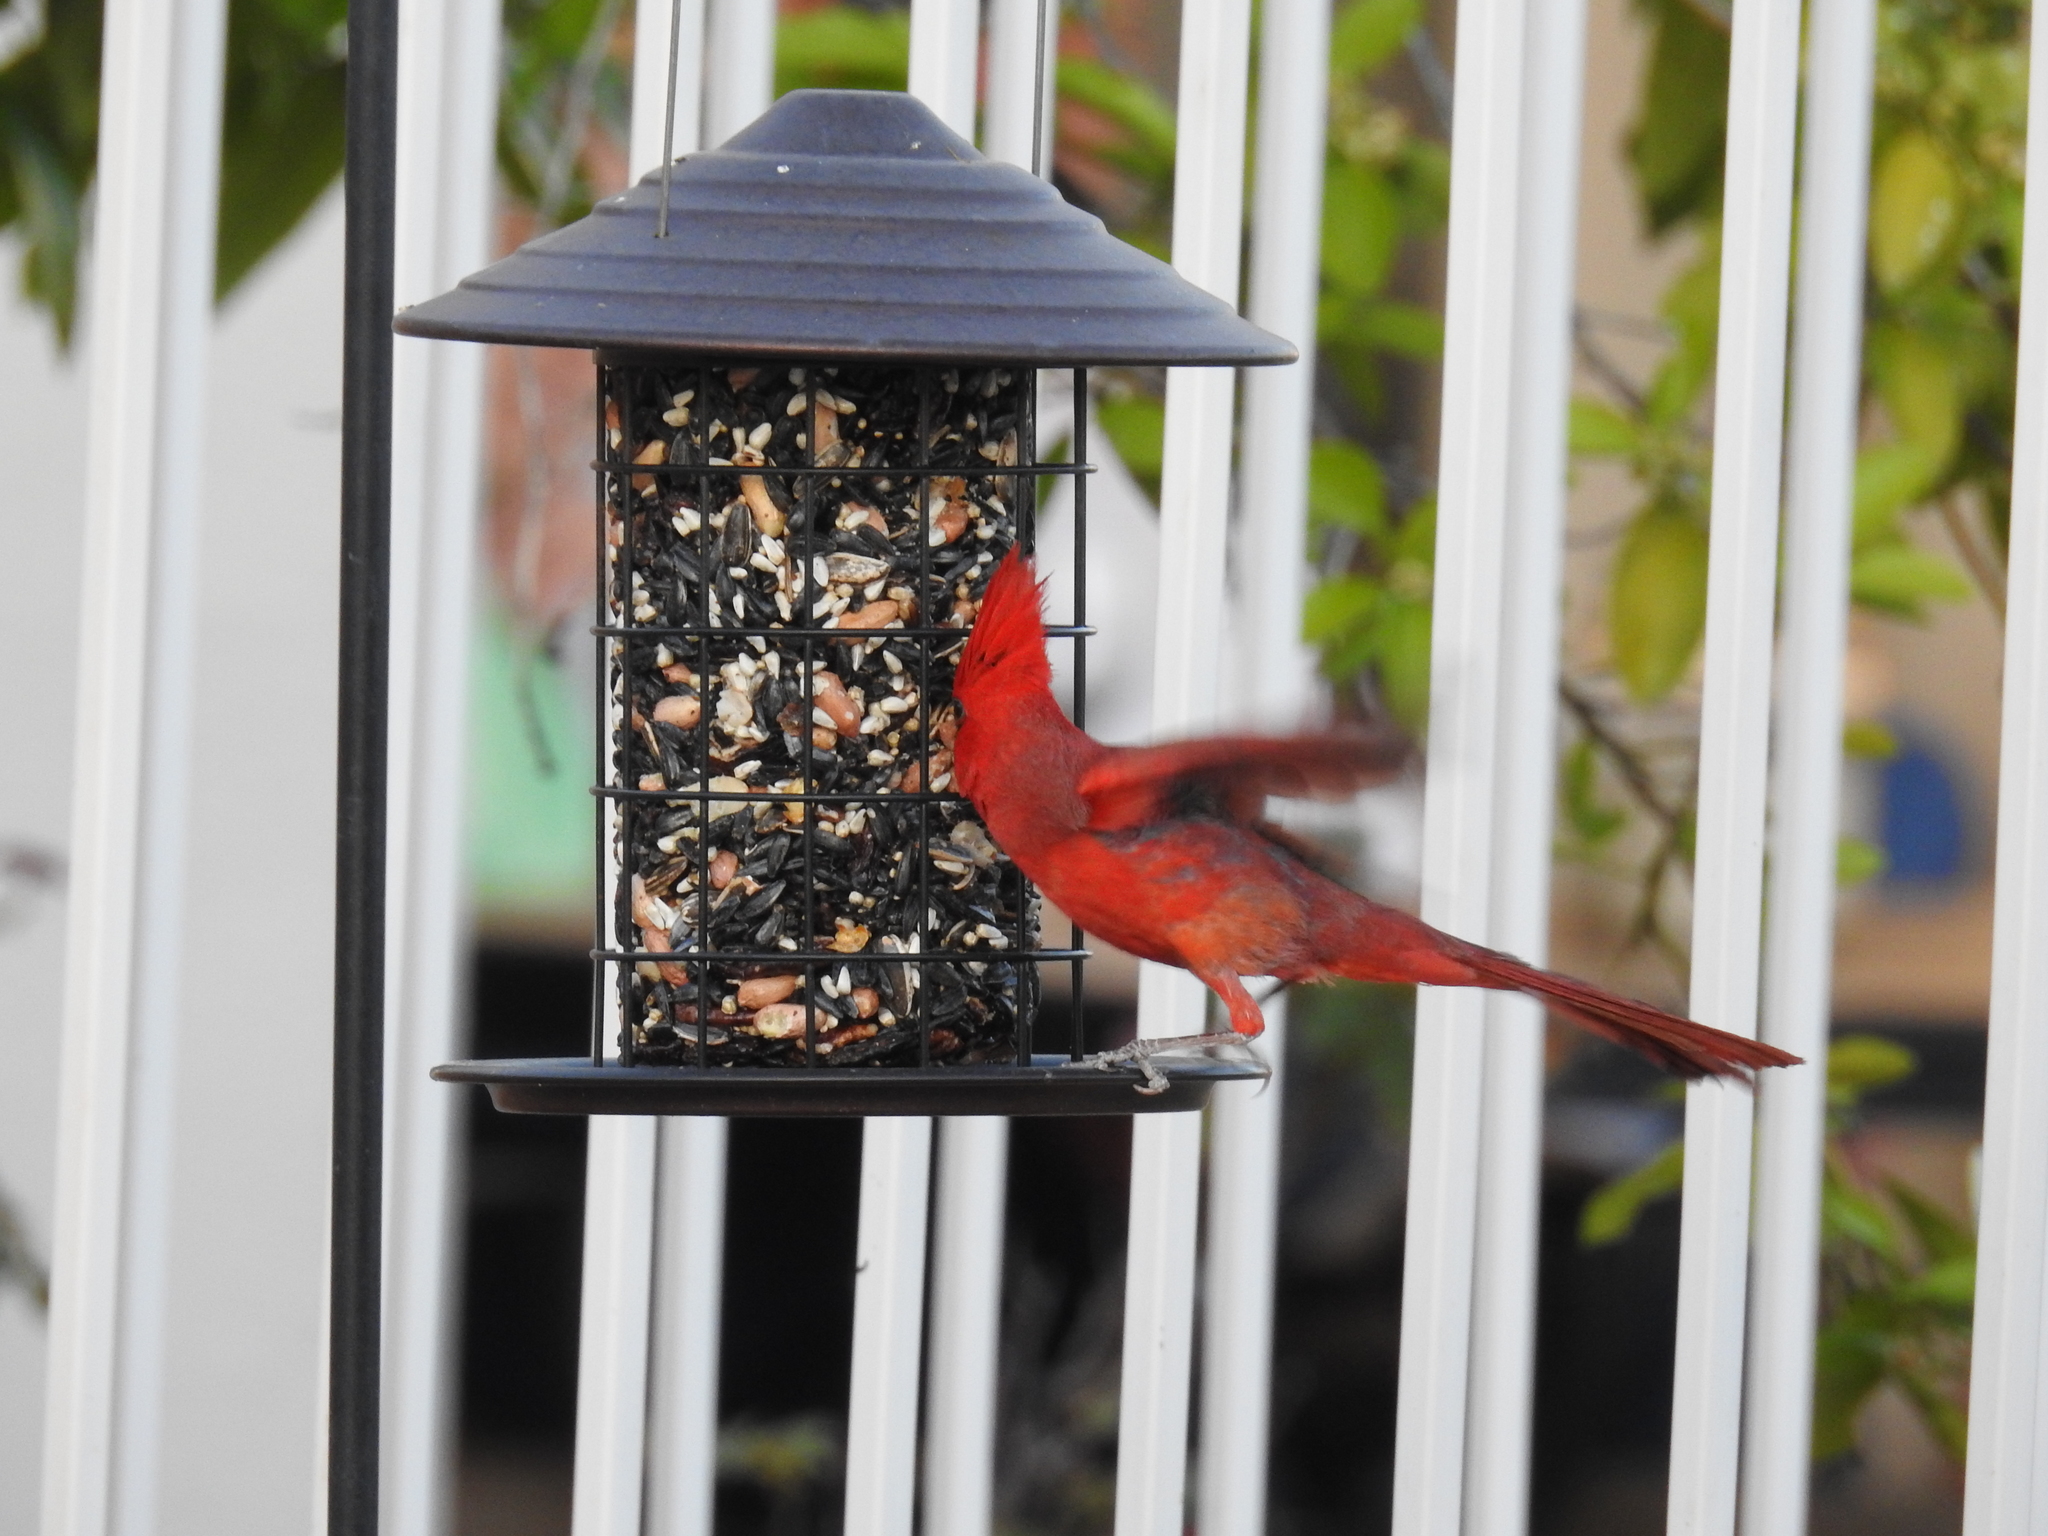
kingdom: Animalia
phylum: Chordata
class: Aves
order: Passeriformes
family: Cardinalidae
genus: Cardinalis
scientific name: Cardinalis cardinalis
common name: Northern cardinal
